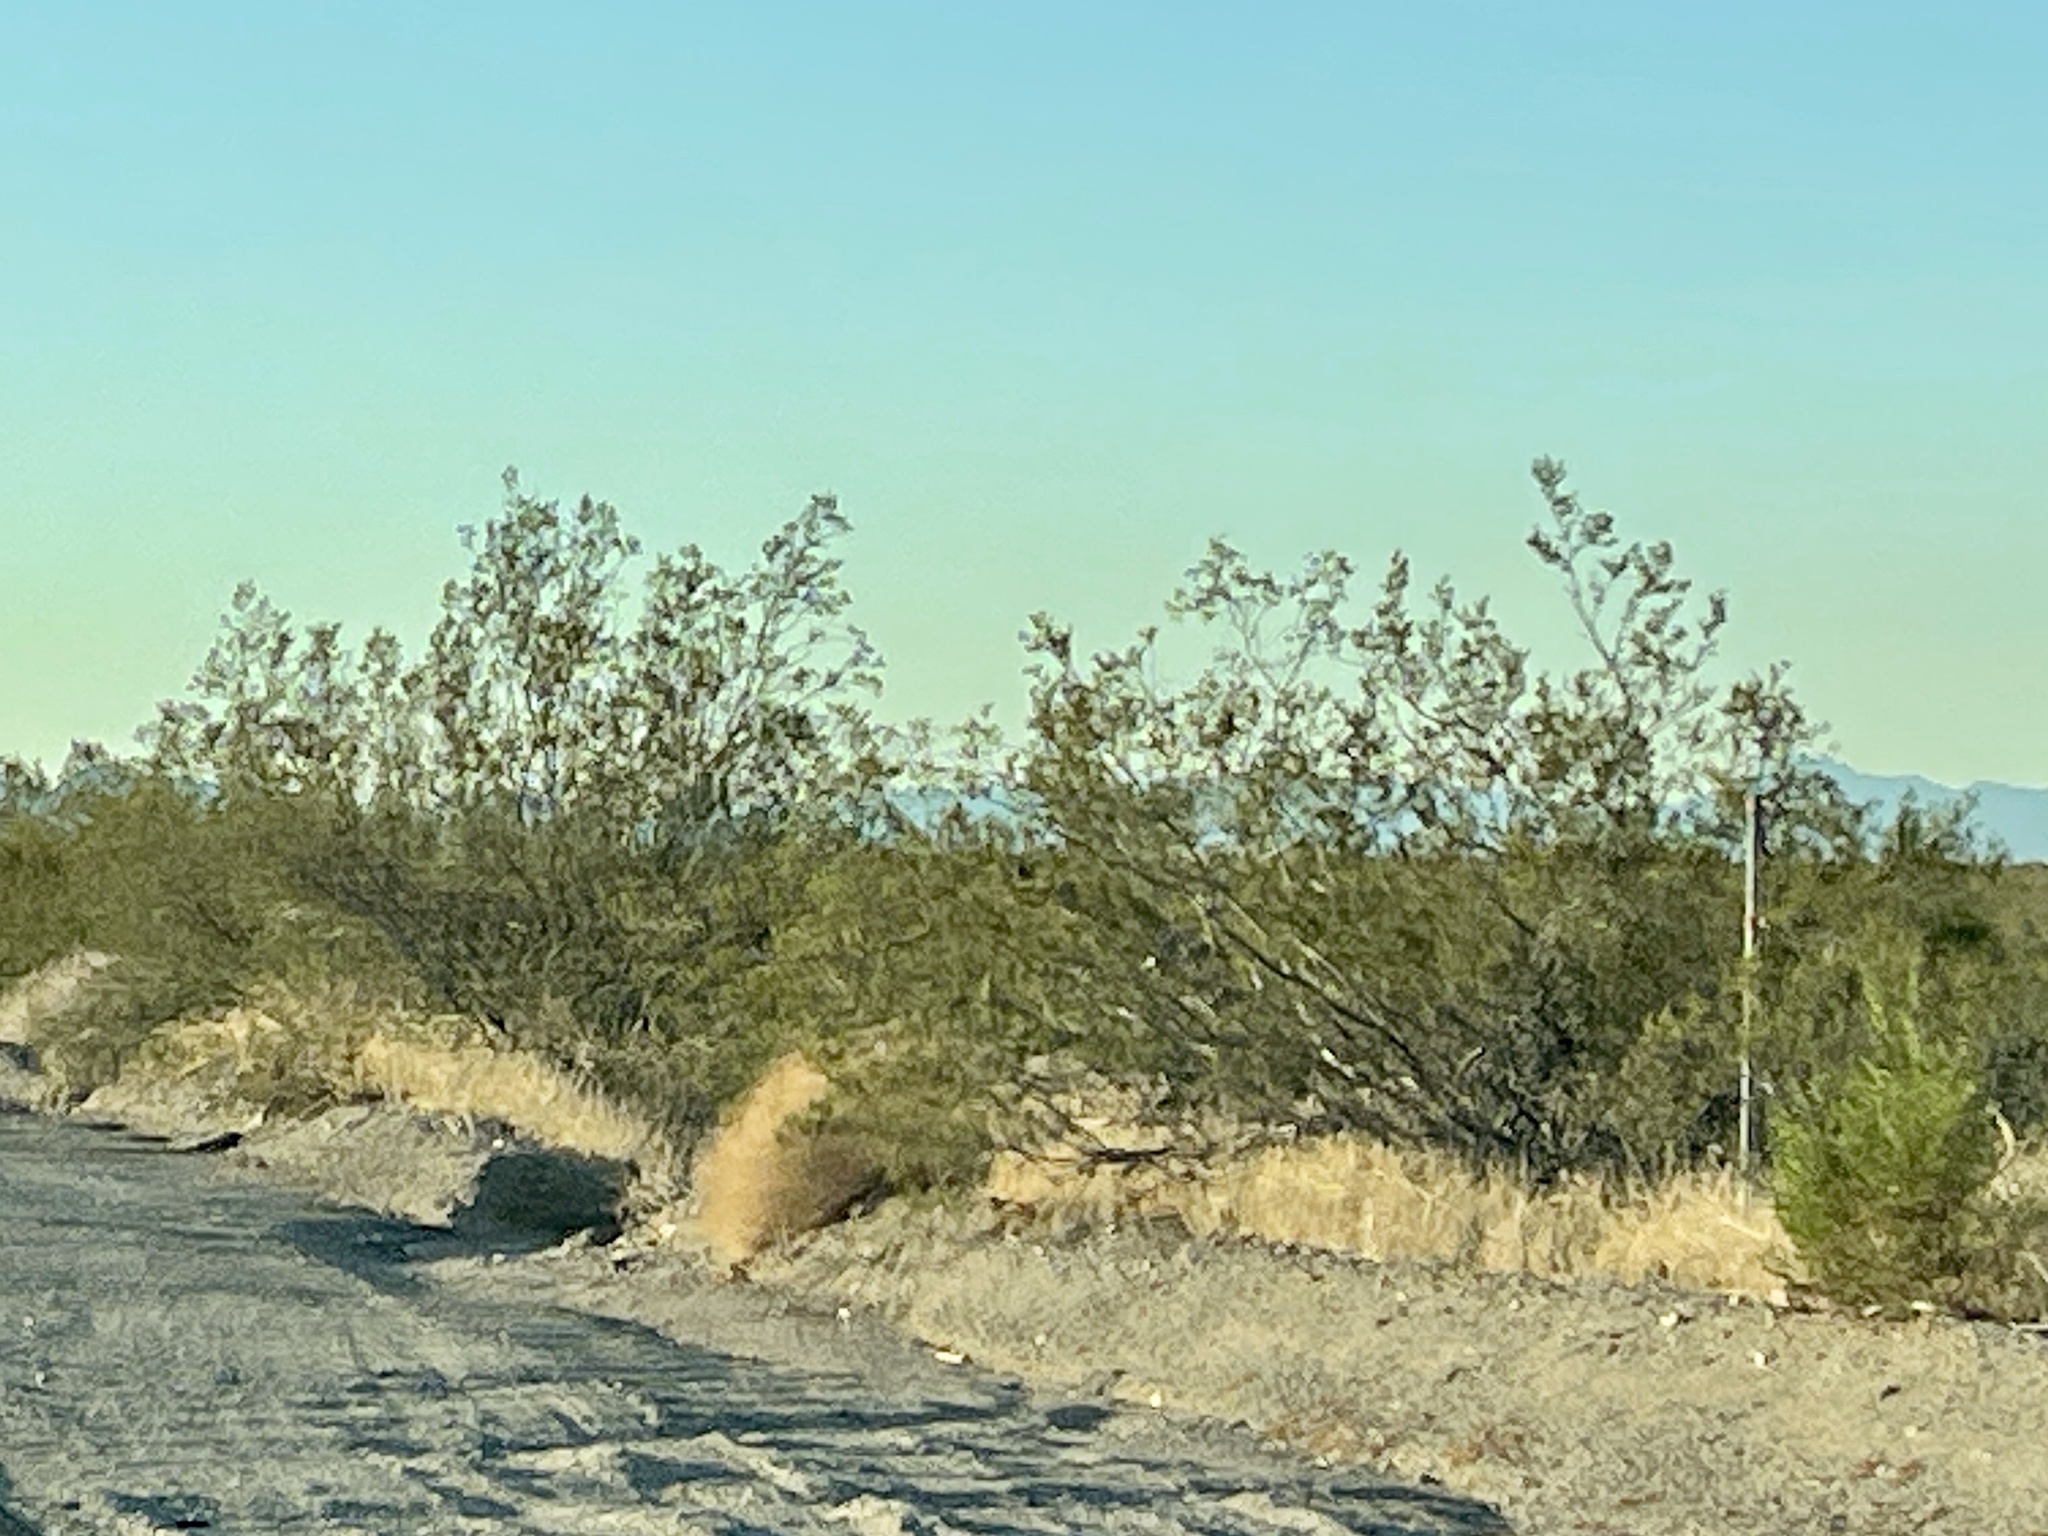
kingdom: Plantae
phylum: Tracheophyta
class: Magnoliopsida
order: Zygophyllales
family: Zygophyllaceae
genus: Larrea
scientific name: Larrea tridentata
